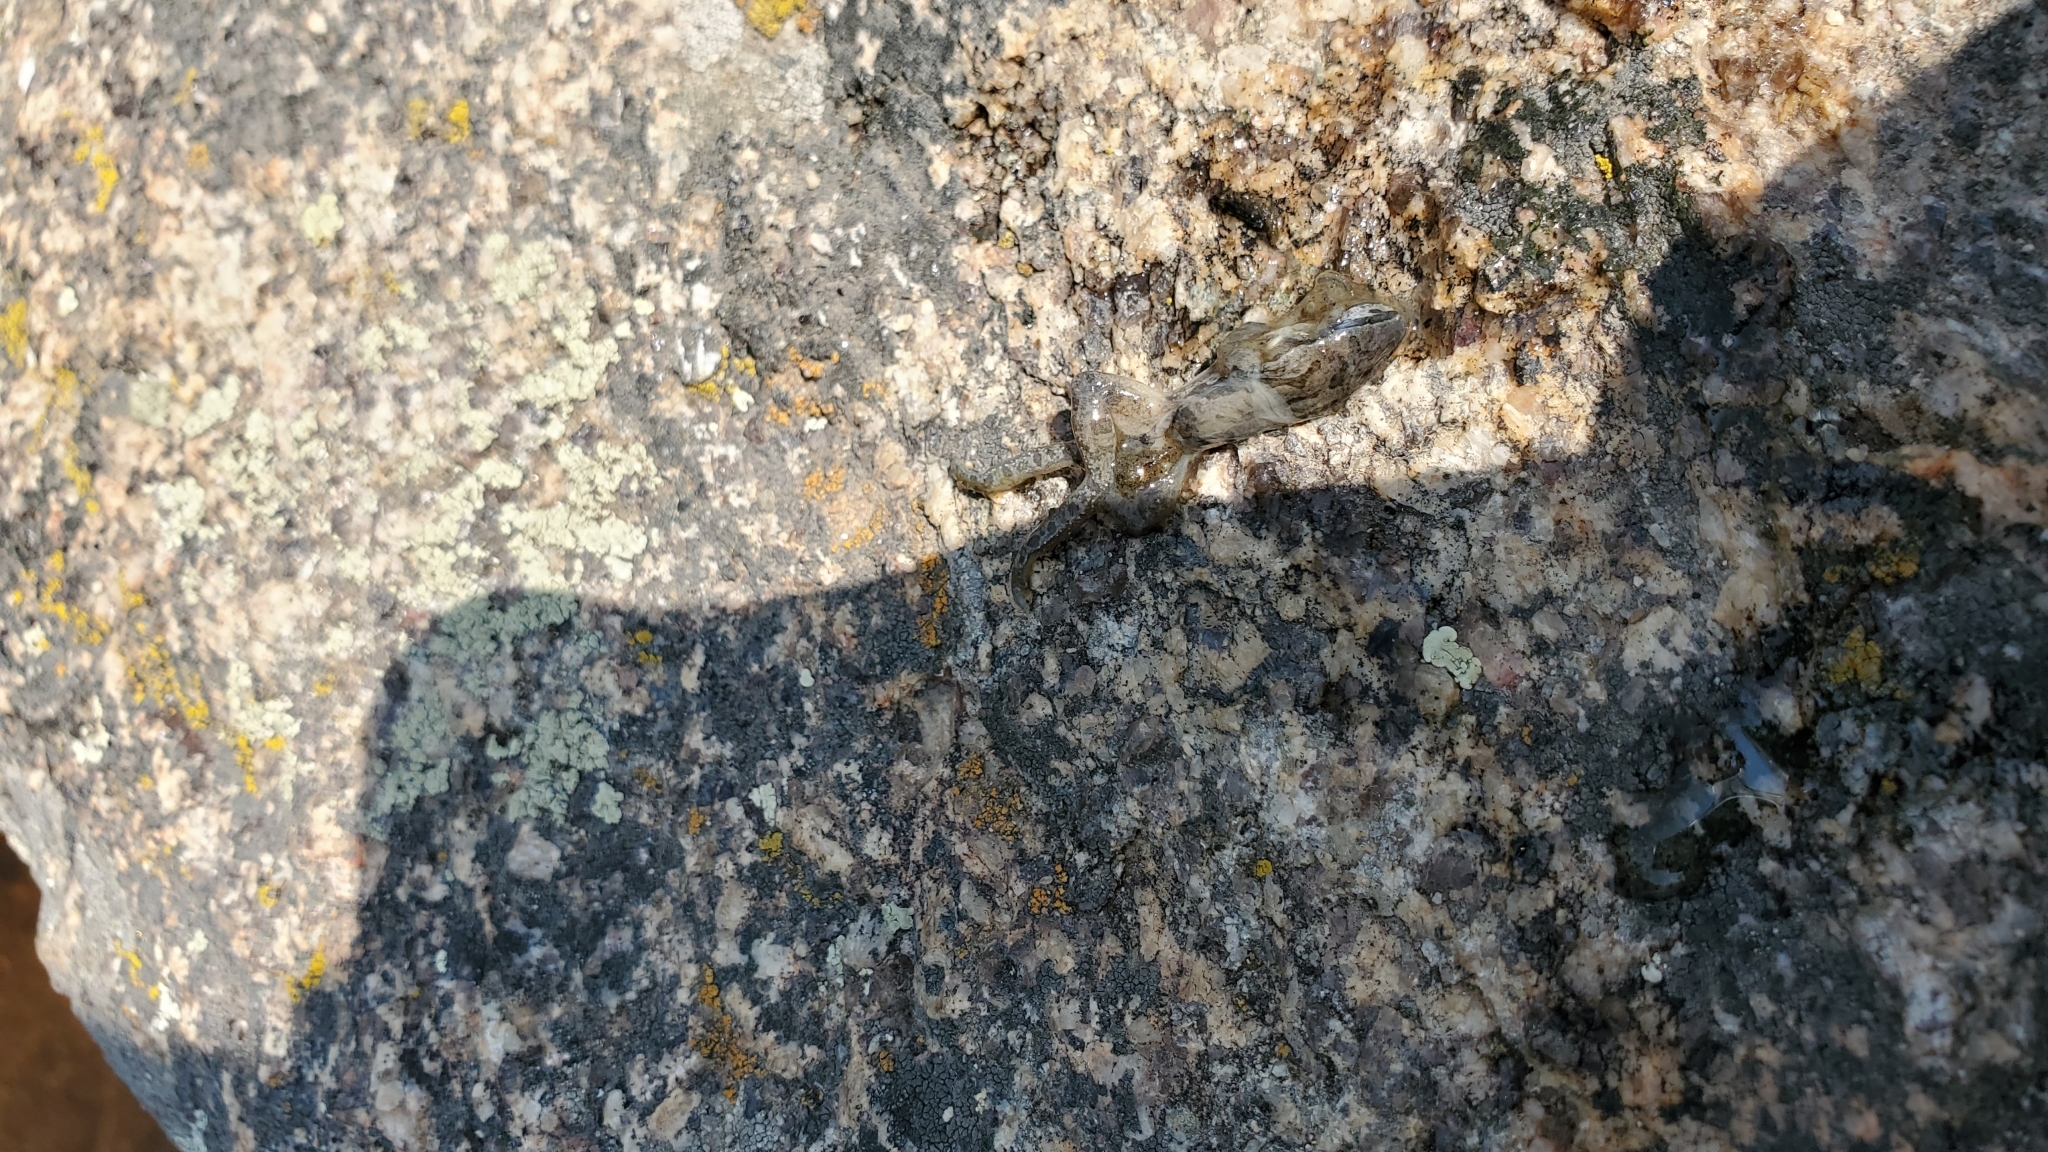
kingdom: Animalia
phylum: Chordata
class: Amphibia
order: Anura
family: Hylidae
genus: Pseudacris
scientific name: Pseudacris maculata
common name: Boreal chorus frog
